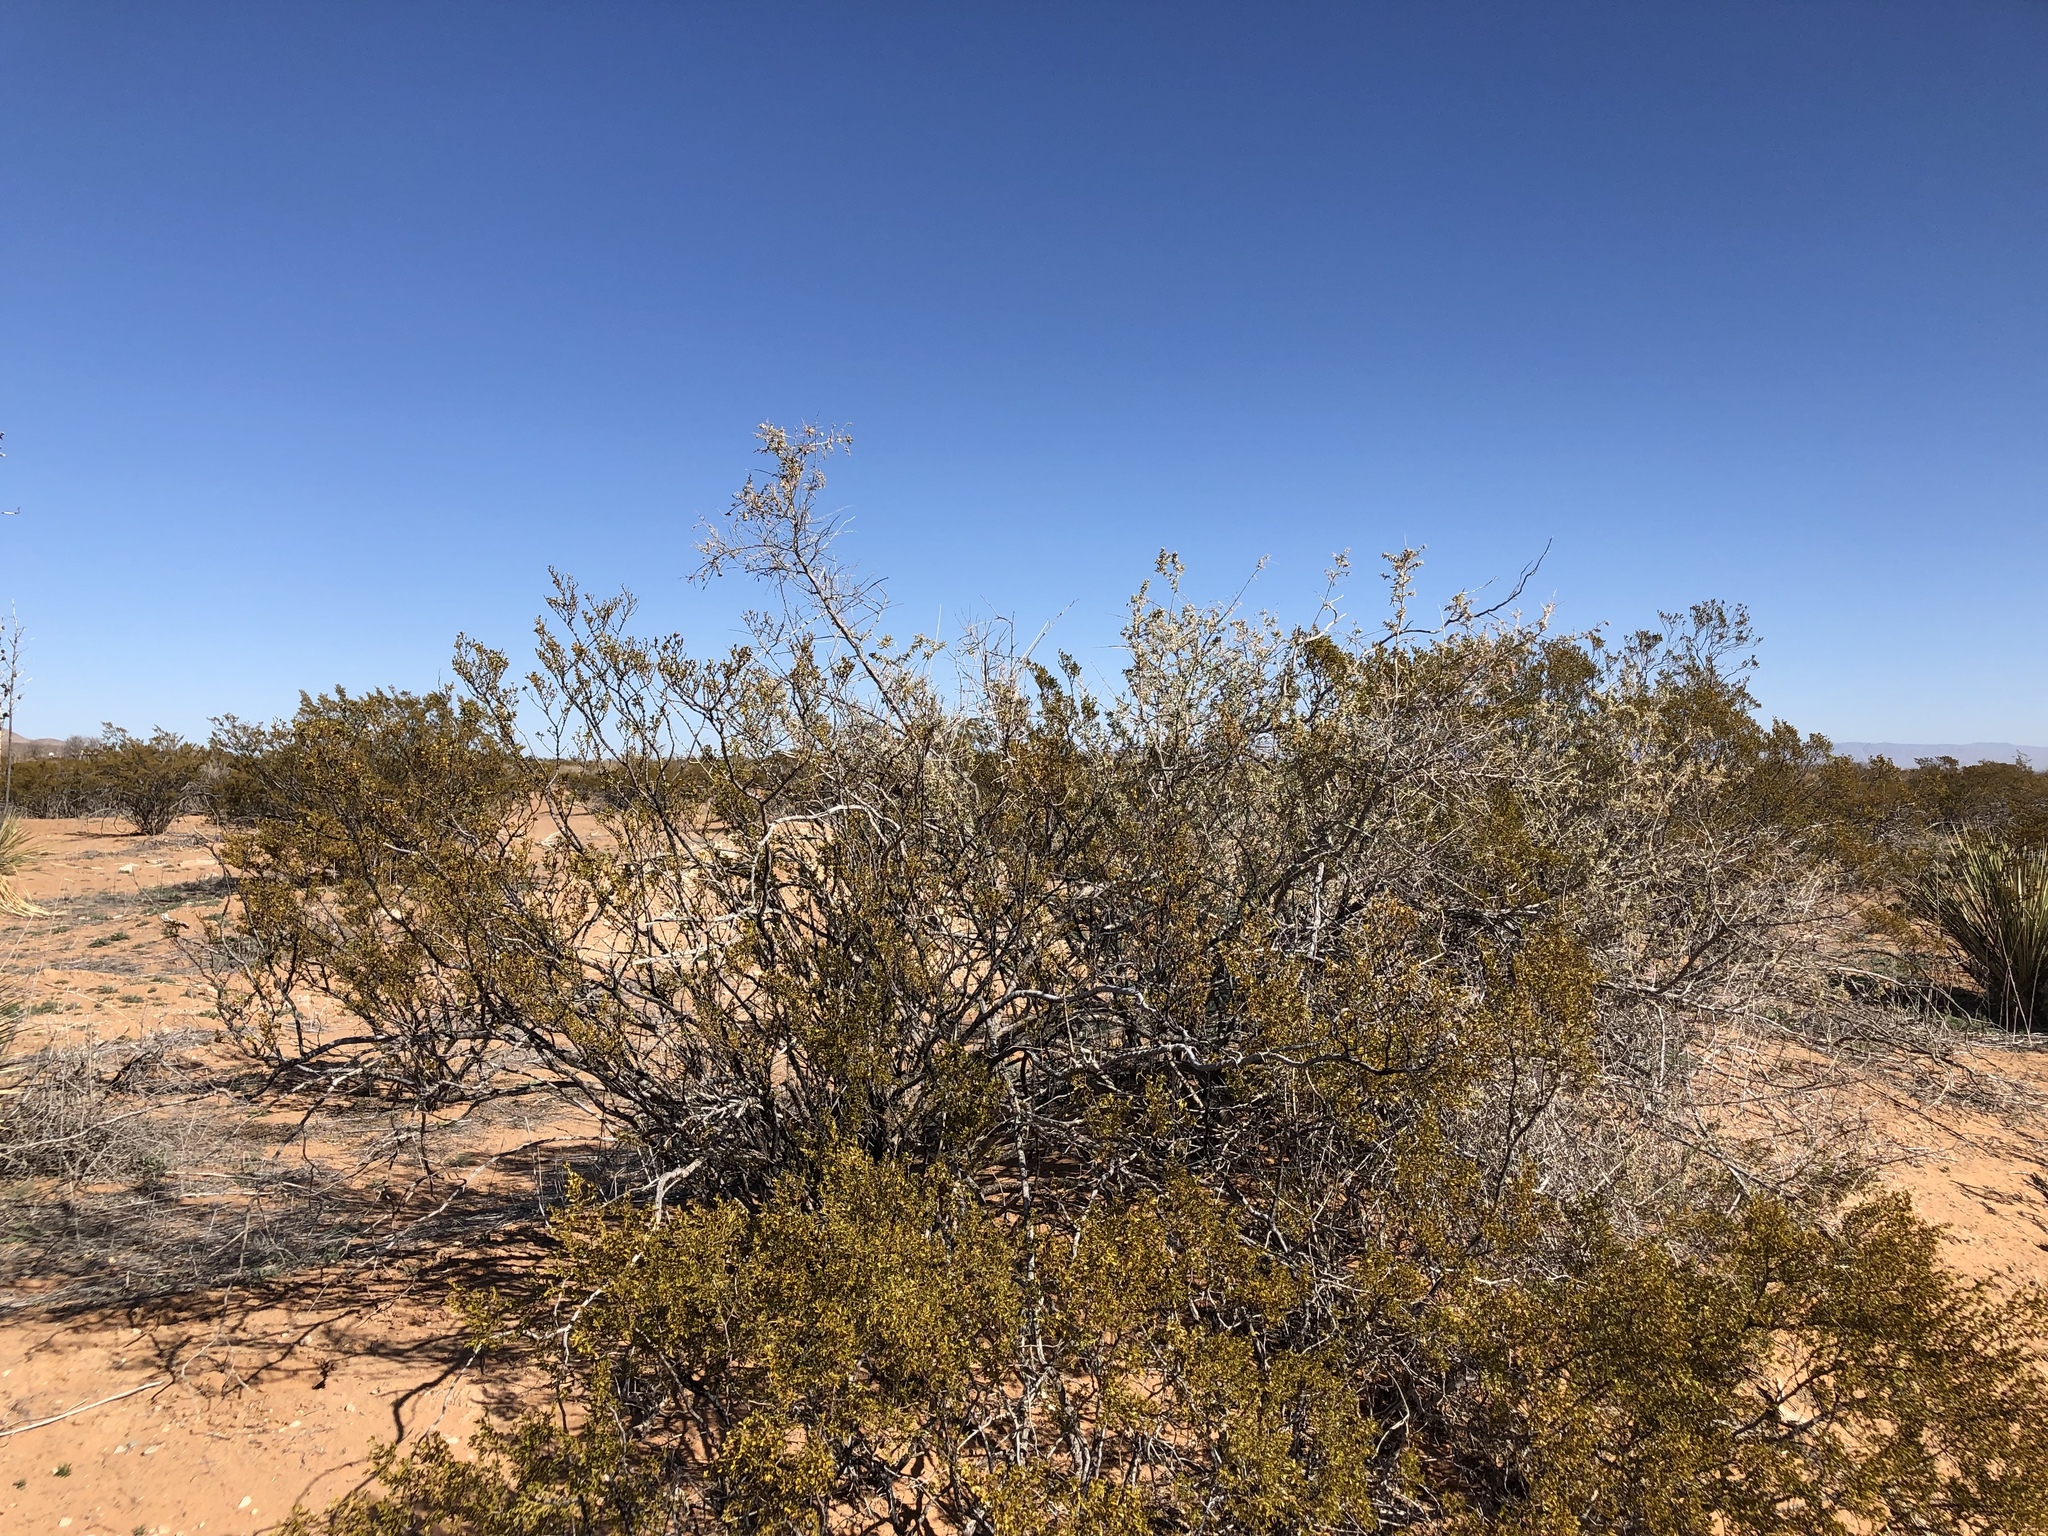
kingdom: Plantae
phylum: Tracheophyta
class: Magnoliopsida
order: Zygophyllales
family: Zygophyllaceae
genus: Larrea
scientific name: Larrea tridentata
